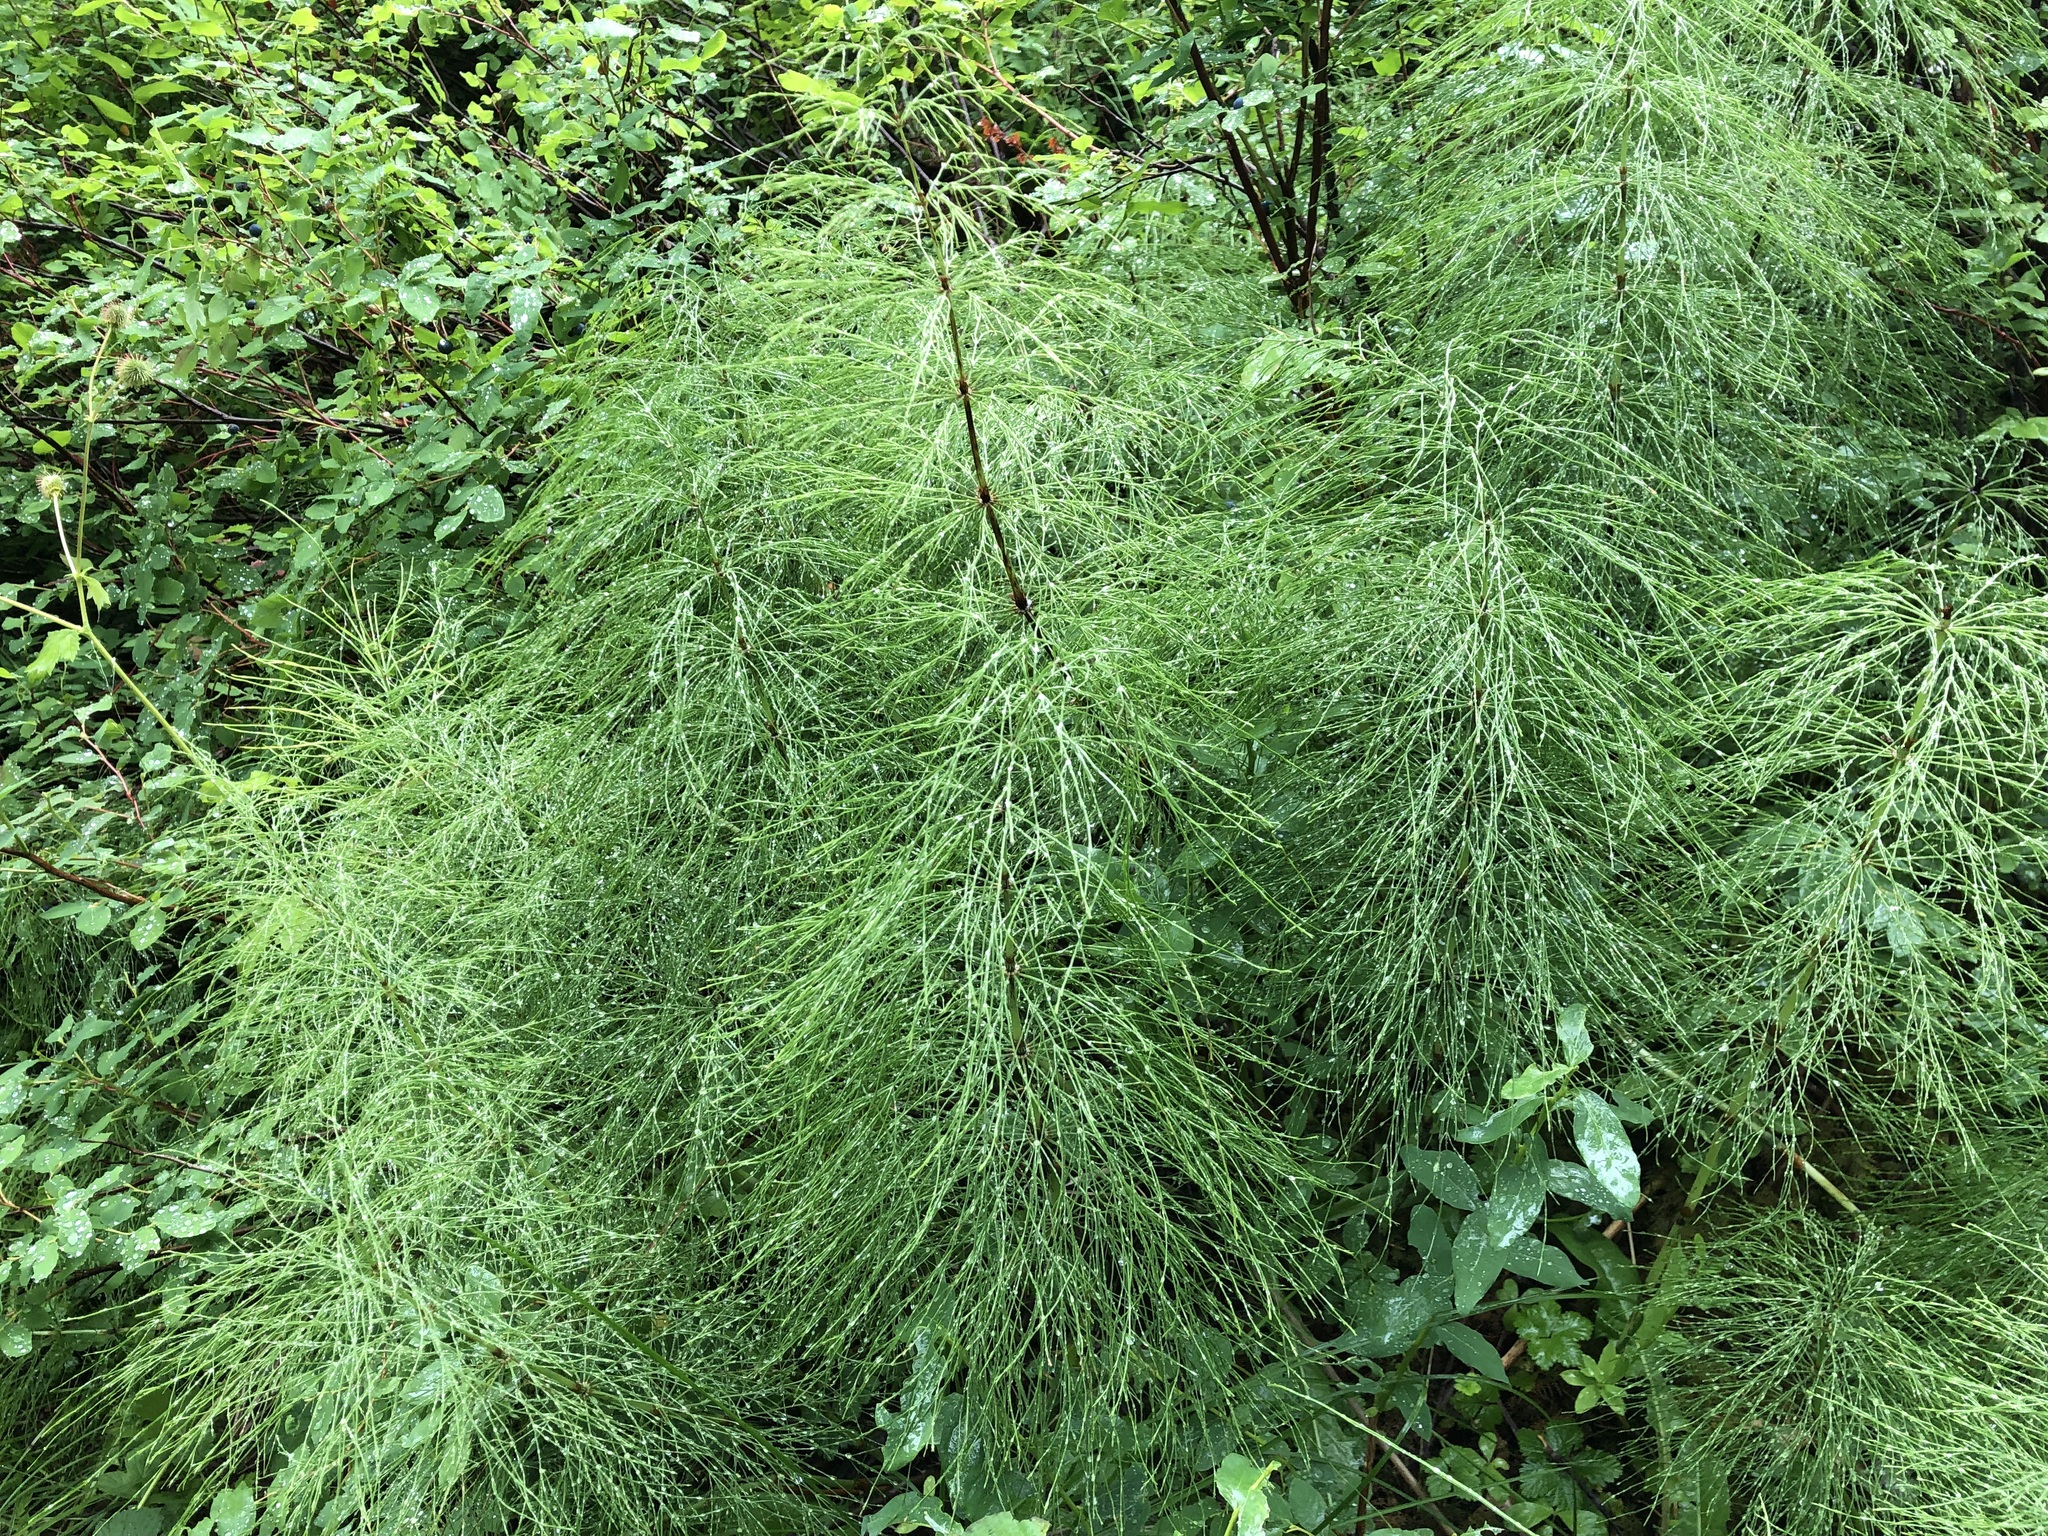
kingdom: Plantae
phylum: Tracheophyta
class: Polypodiopsida
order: Equisetales
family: Equisetaceae
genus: Equisetum
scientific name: Equisetum sylvaticum
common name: Wood horsetail
